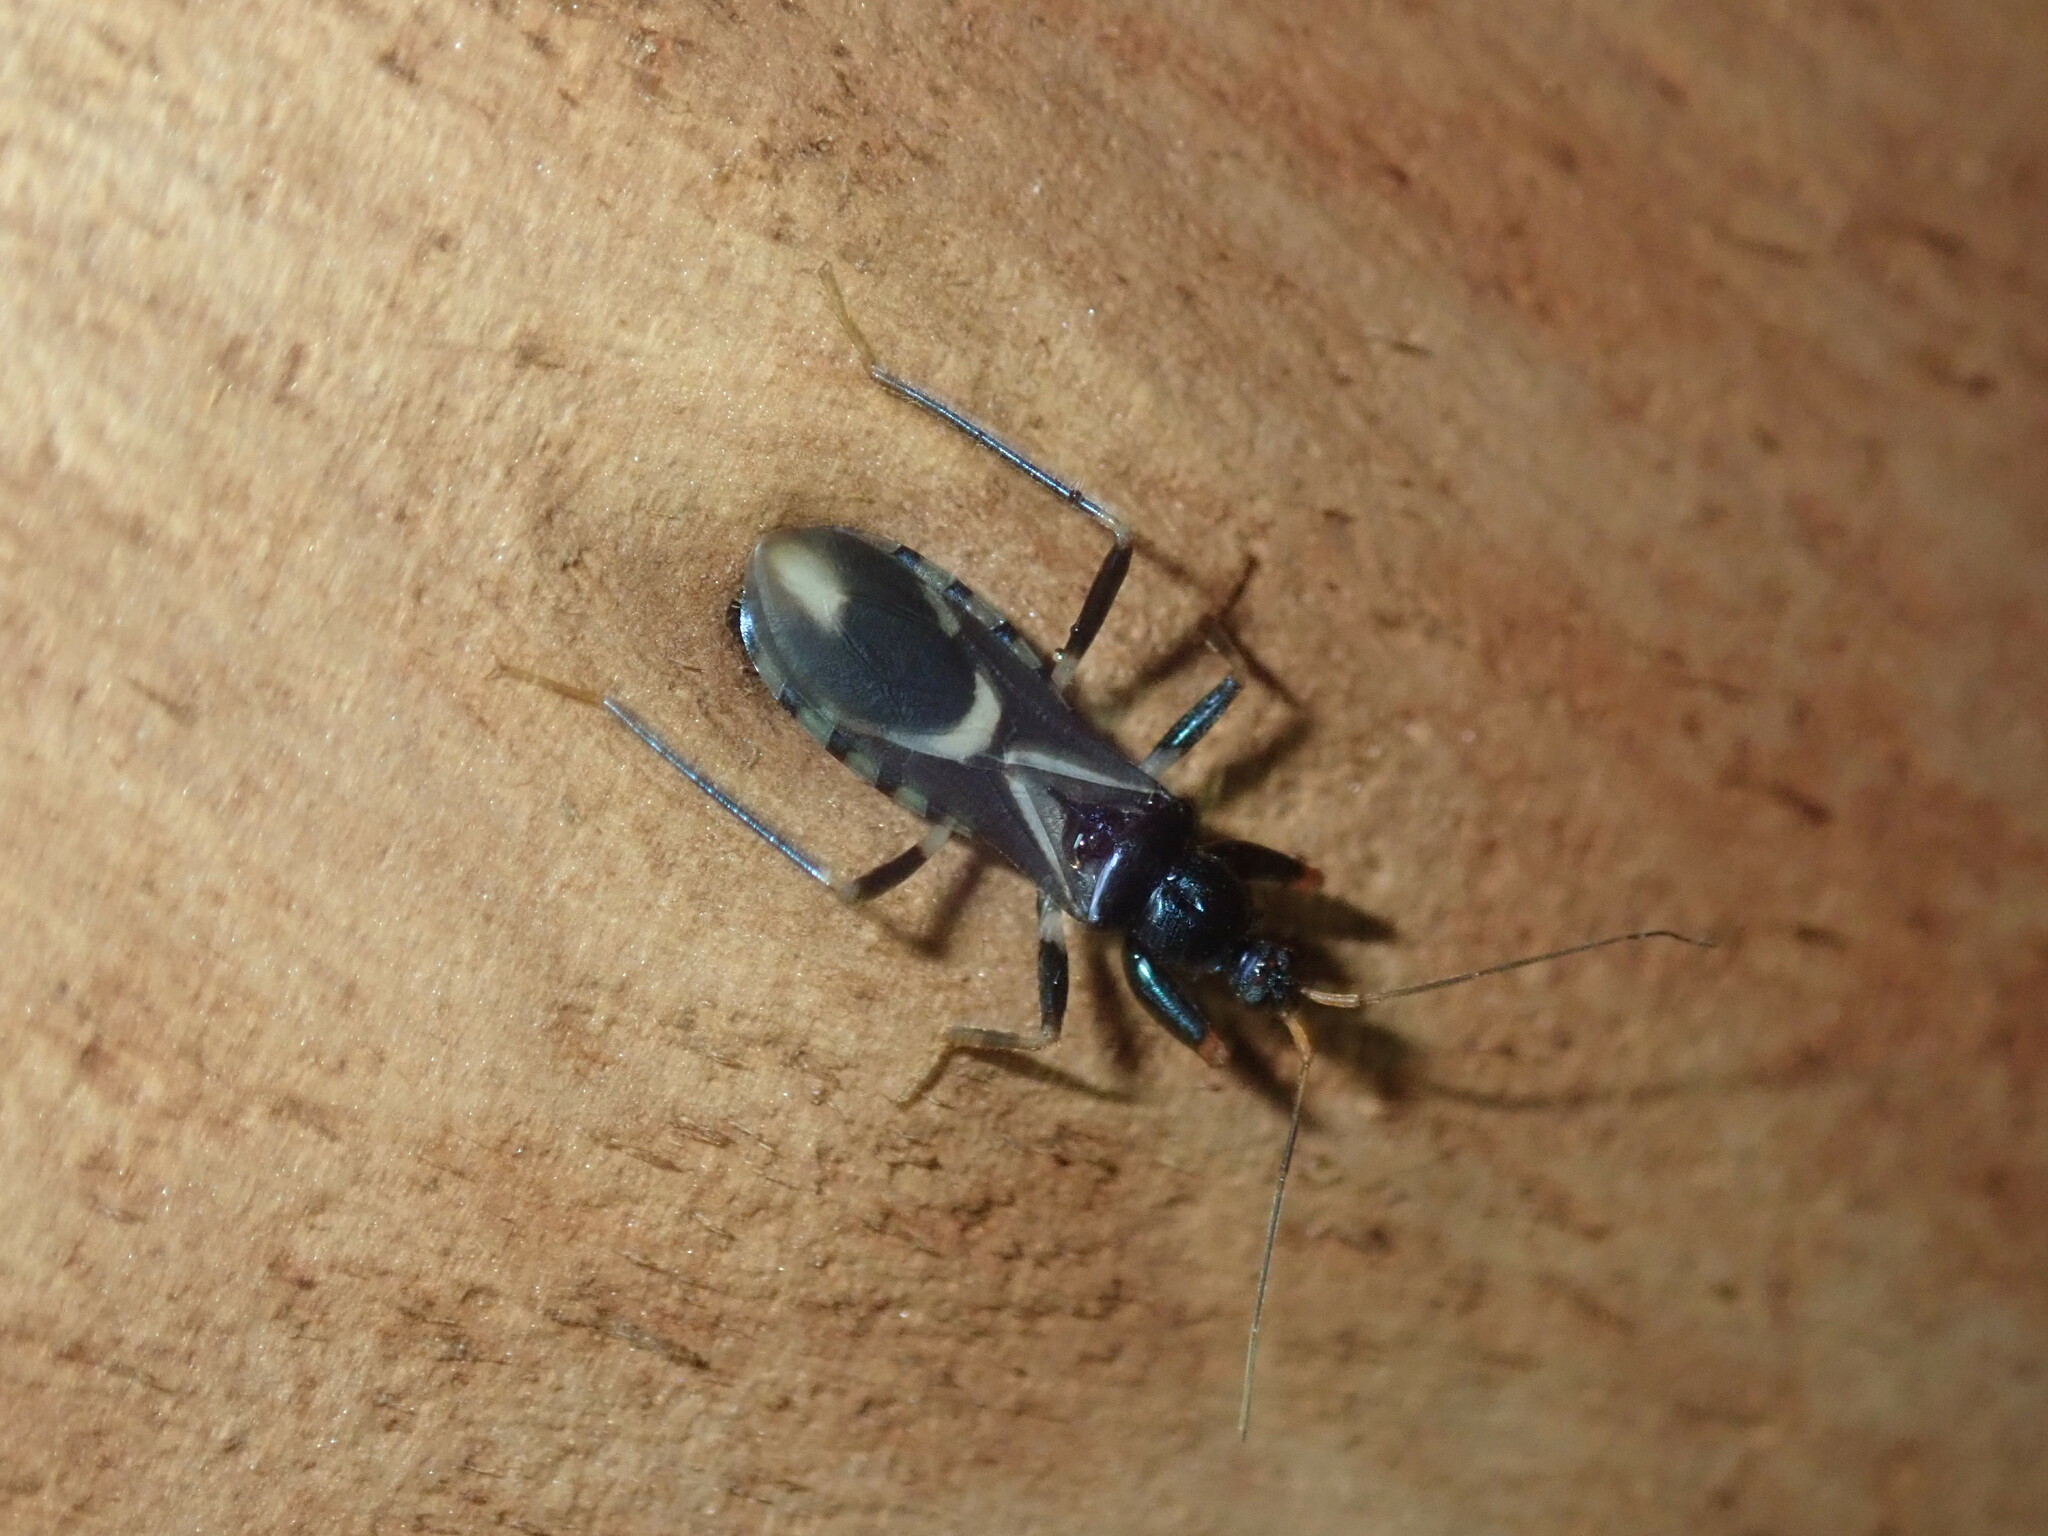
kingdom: Animalia
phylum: Arthropoda
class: Insecta
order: Hemiptera
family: Reduviidae
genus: Ectomocoris
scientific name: Ectomocoris decoratus
